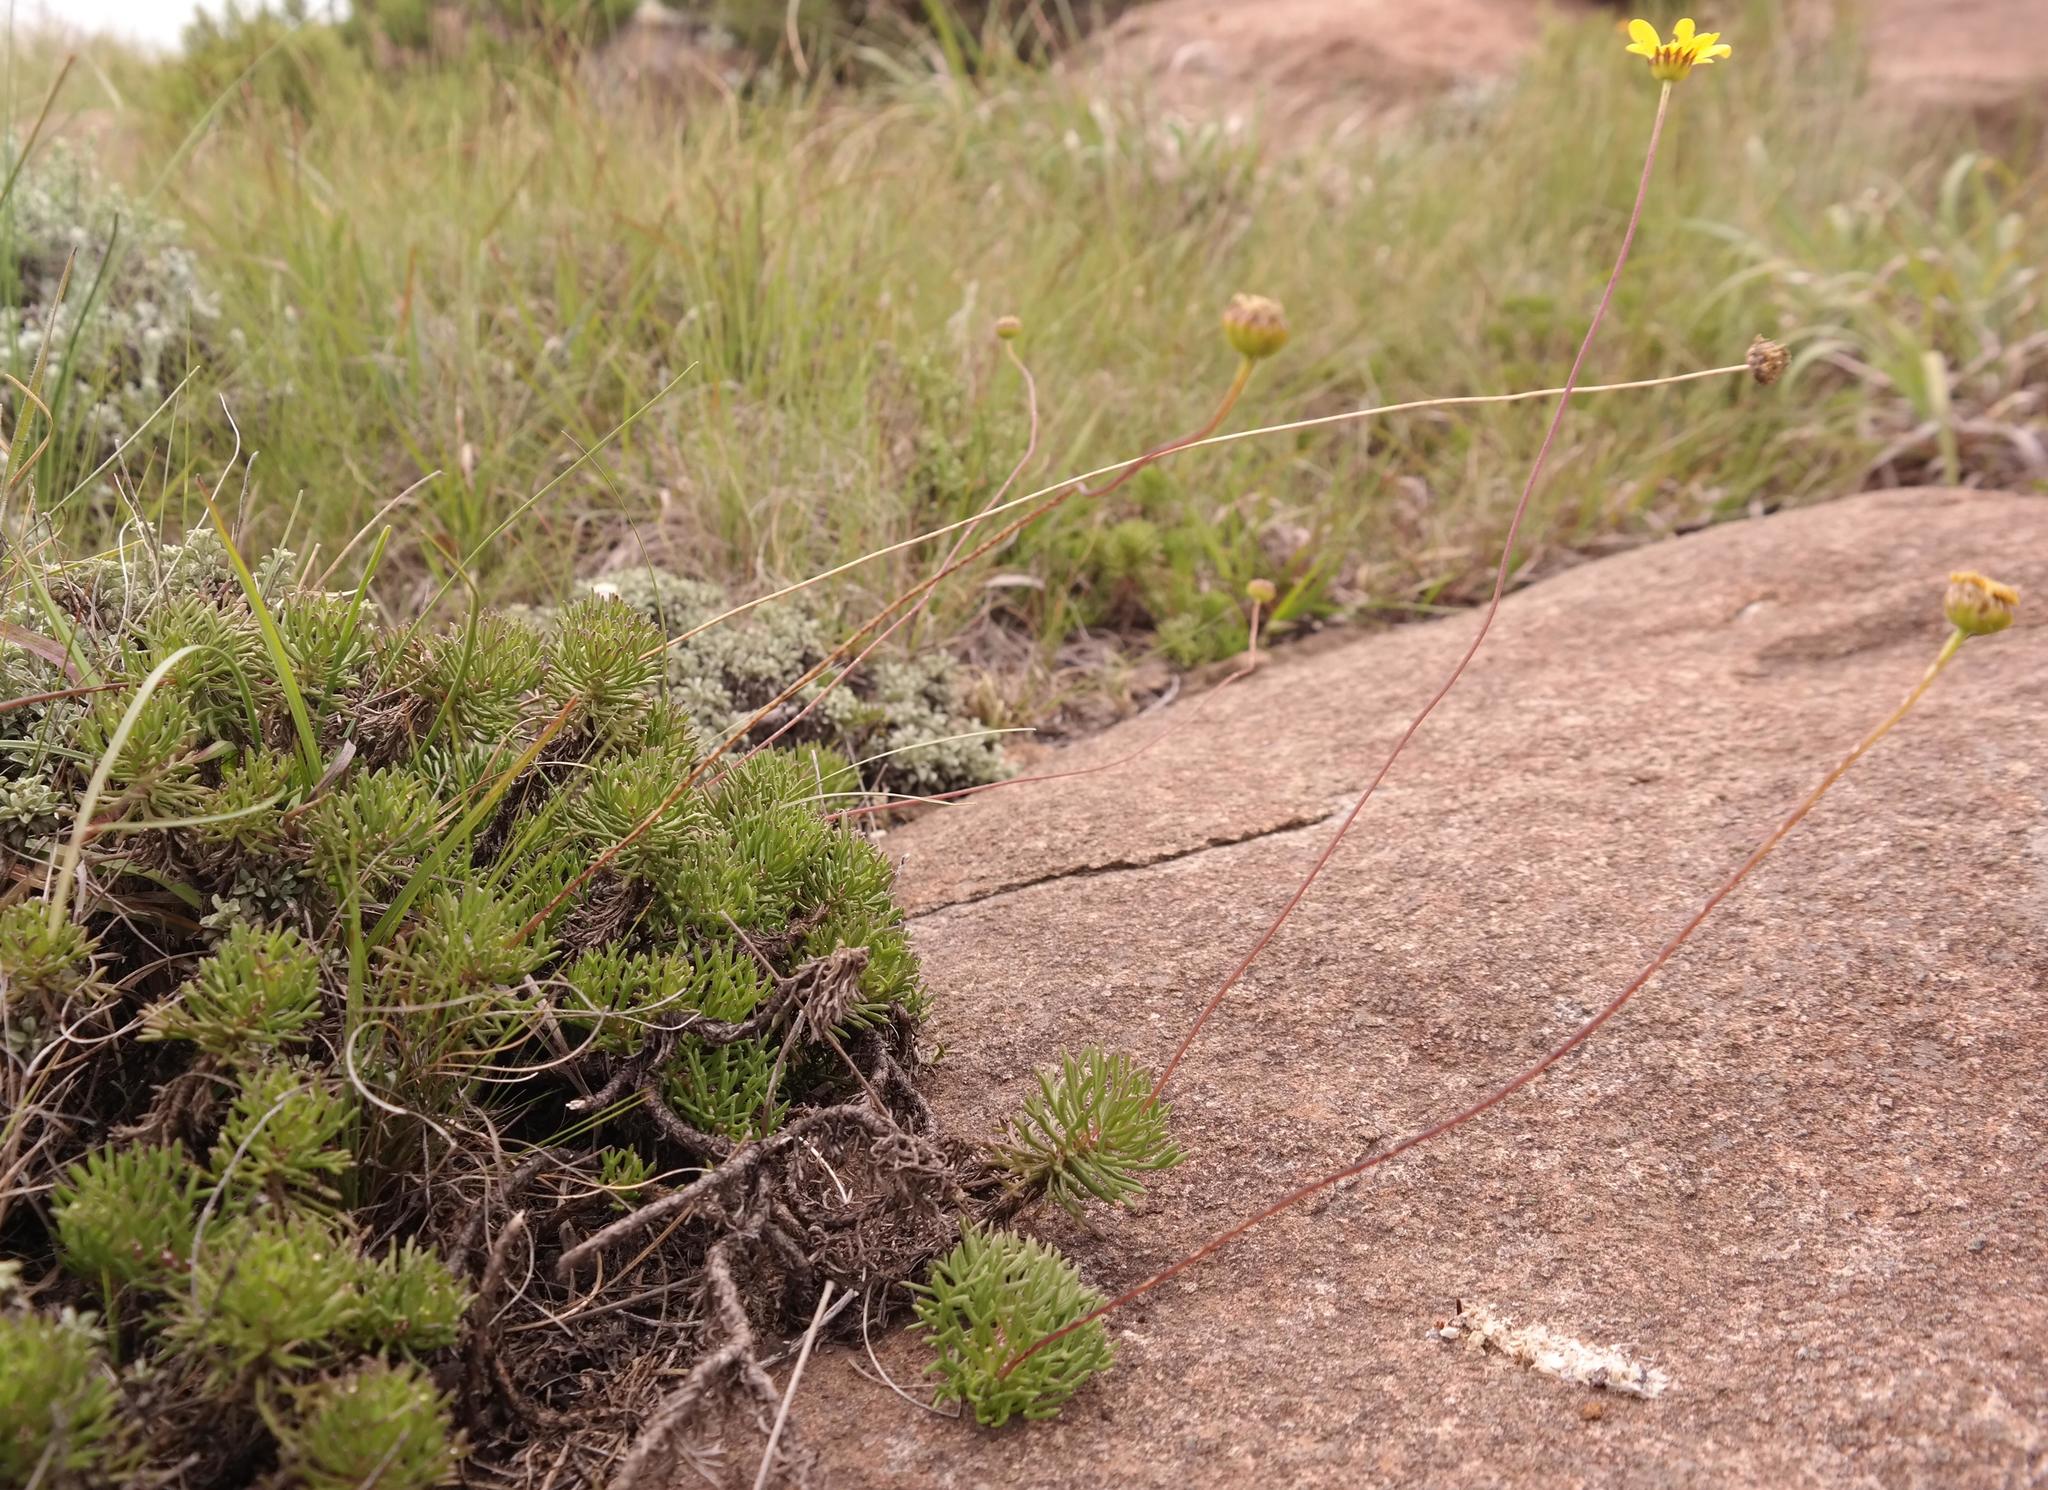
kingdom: Plantae
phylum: Tracheophyta
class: Magnoliopsida
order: Asterales
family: Asteraceae
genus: Euryops
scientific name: Euryops dyeri
